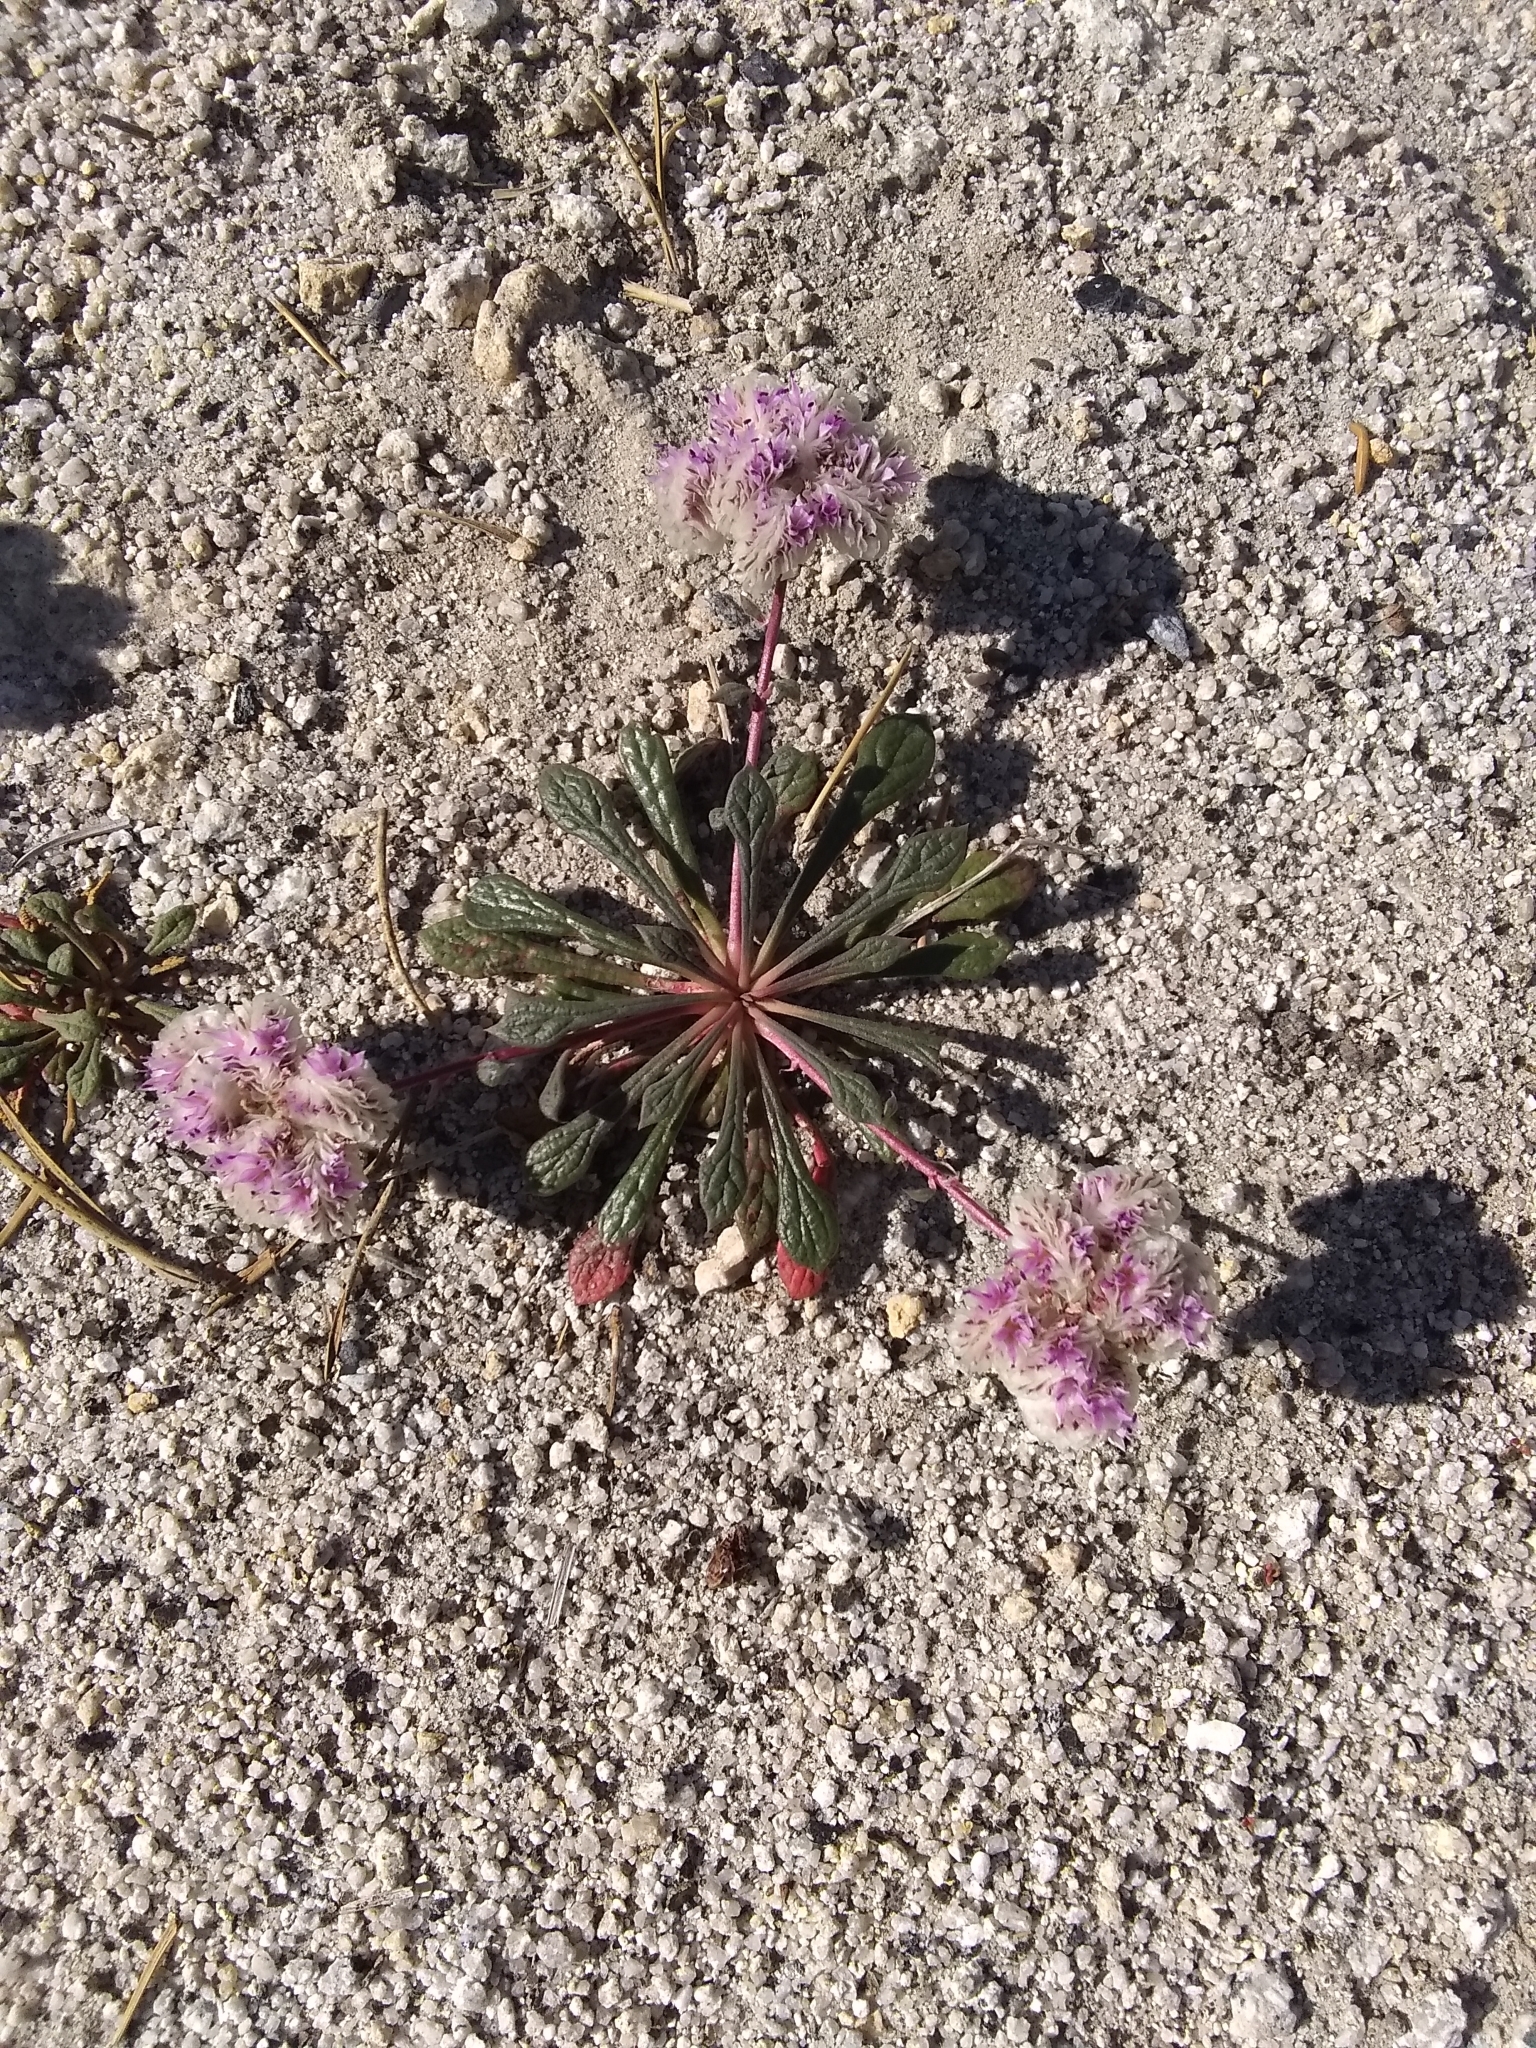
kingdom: Plantae
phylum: Tracheophyta
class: Magnoliopsida
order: Caryophyllales
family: Montiaceae
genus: Calyptridium
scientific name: Calyptridium monospermum
